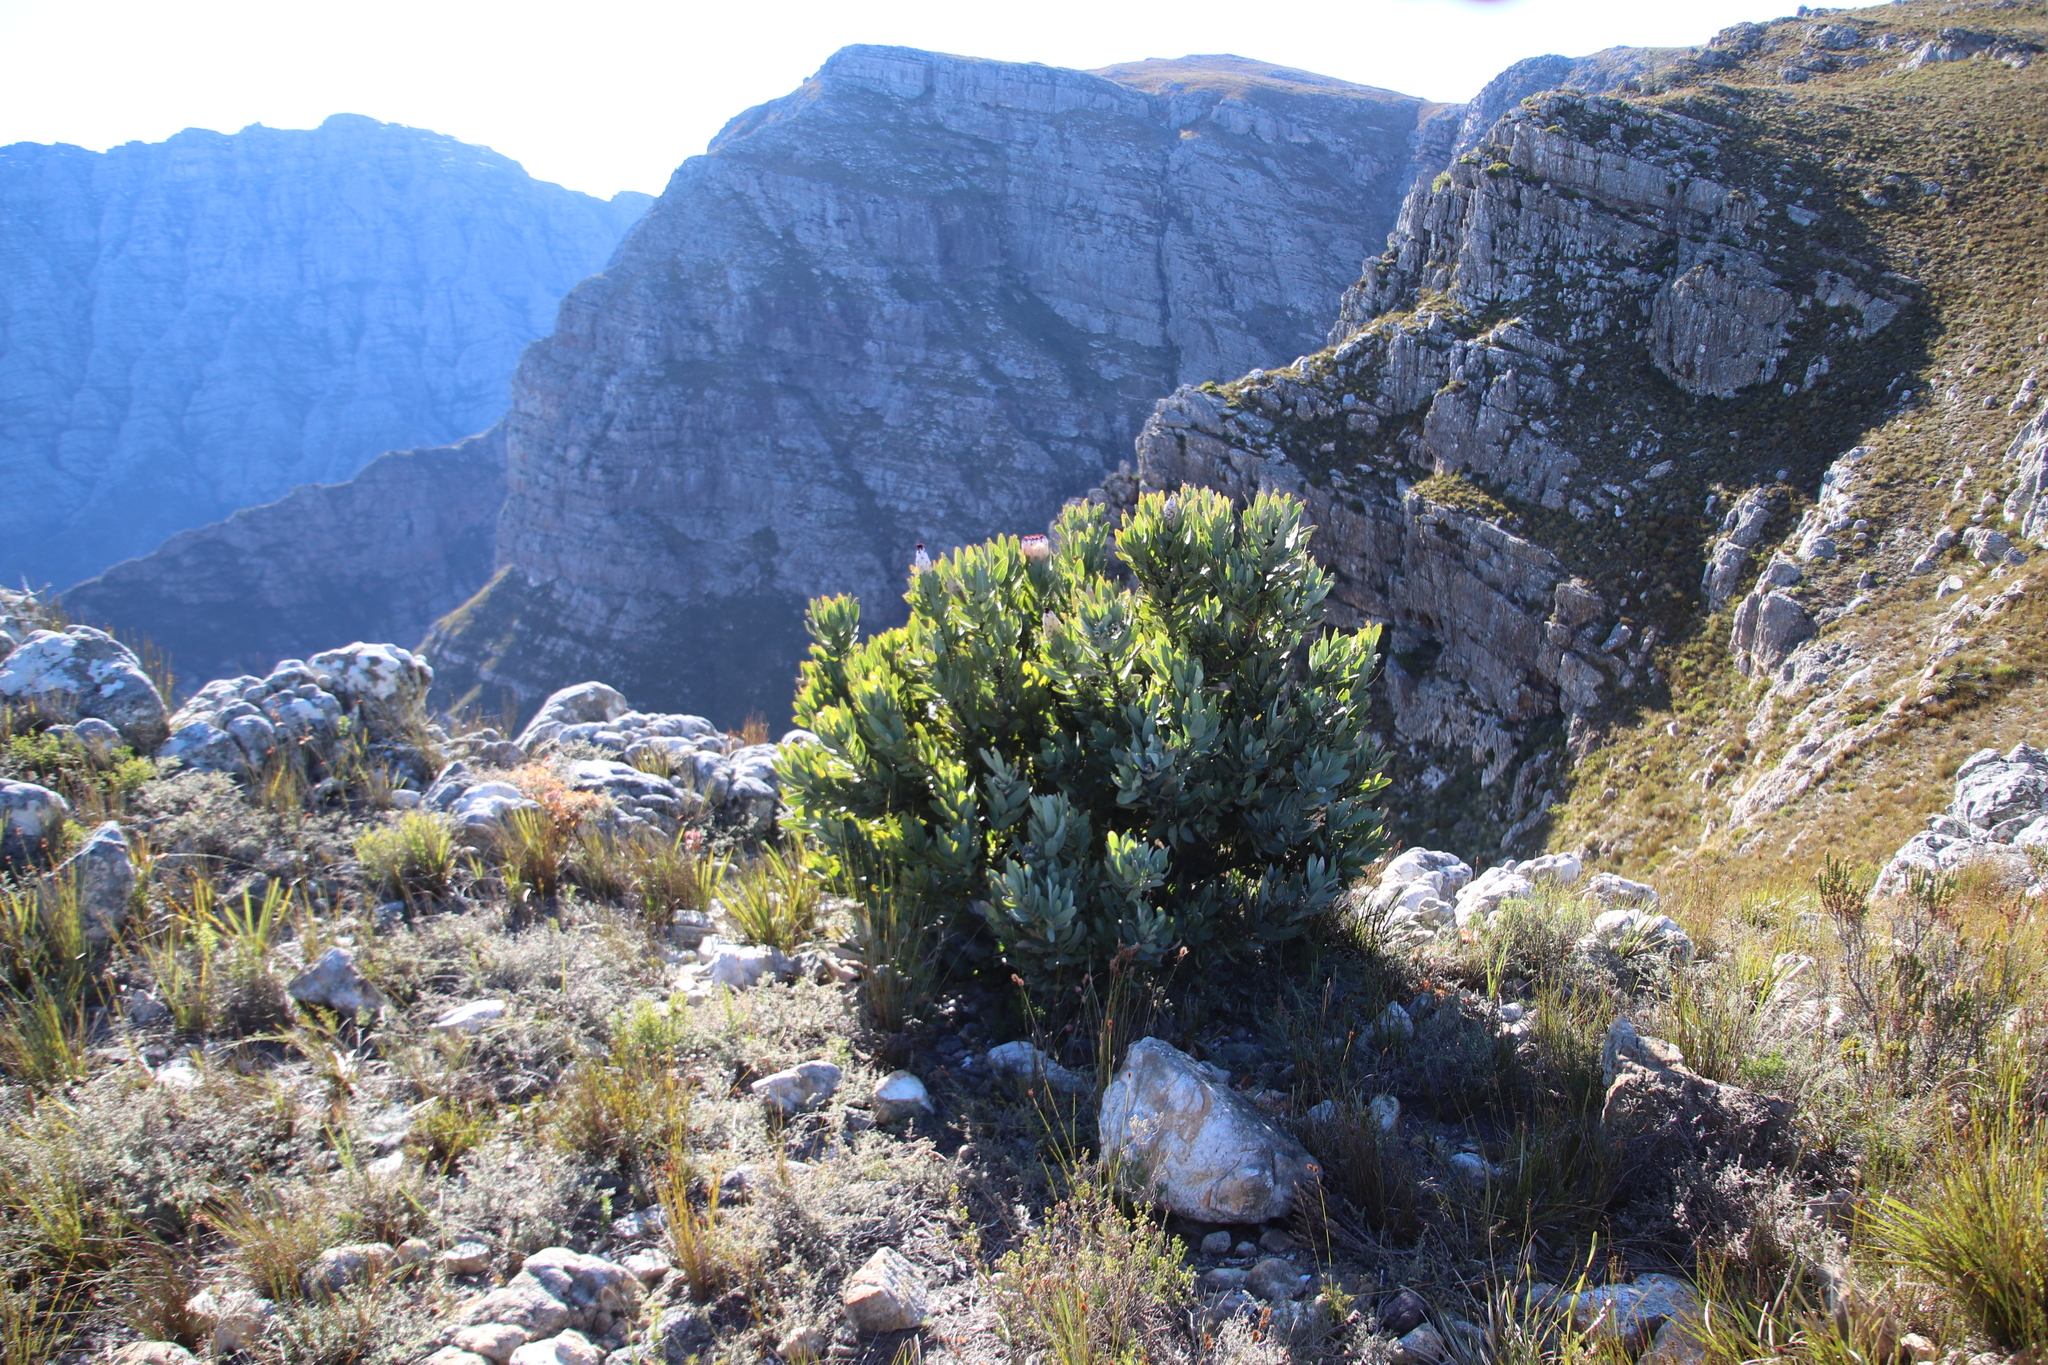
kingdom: Plantae
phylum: Tracheophyta
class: Magnoliopsida
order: Proteales
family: Proteaceae
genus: Protea
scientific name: Protea laurifolia
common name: Grey-leaf sugarbsh
